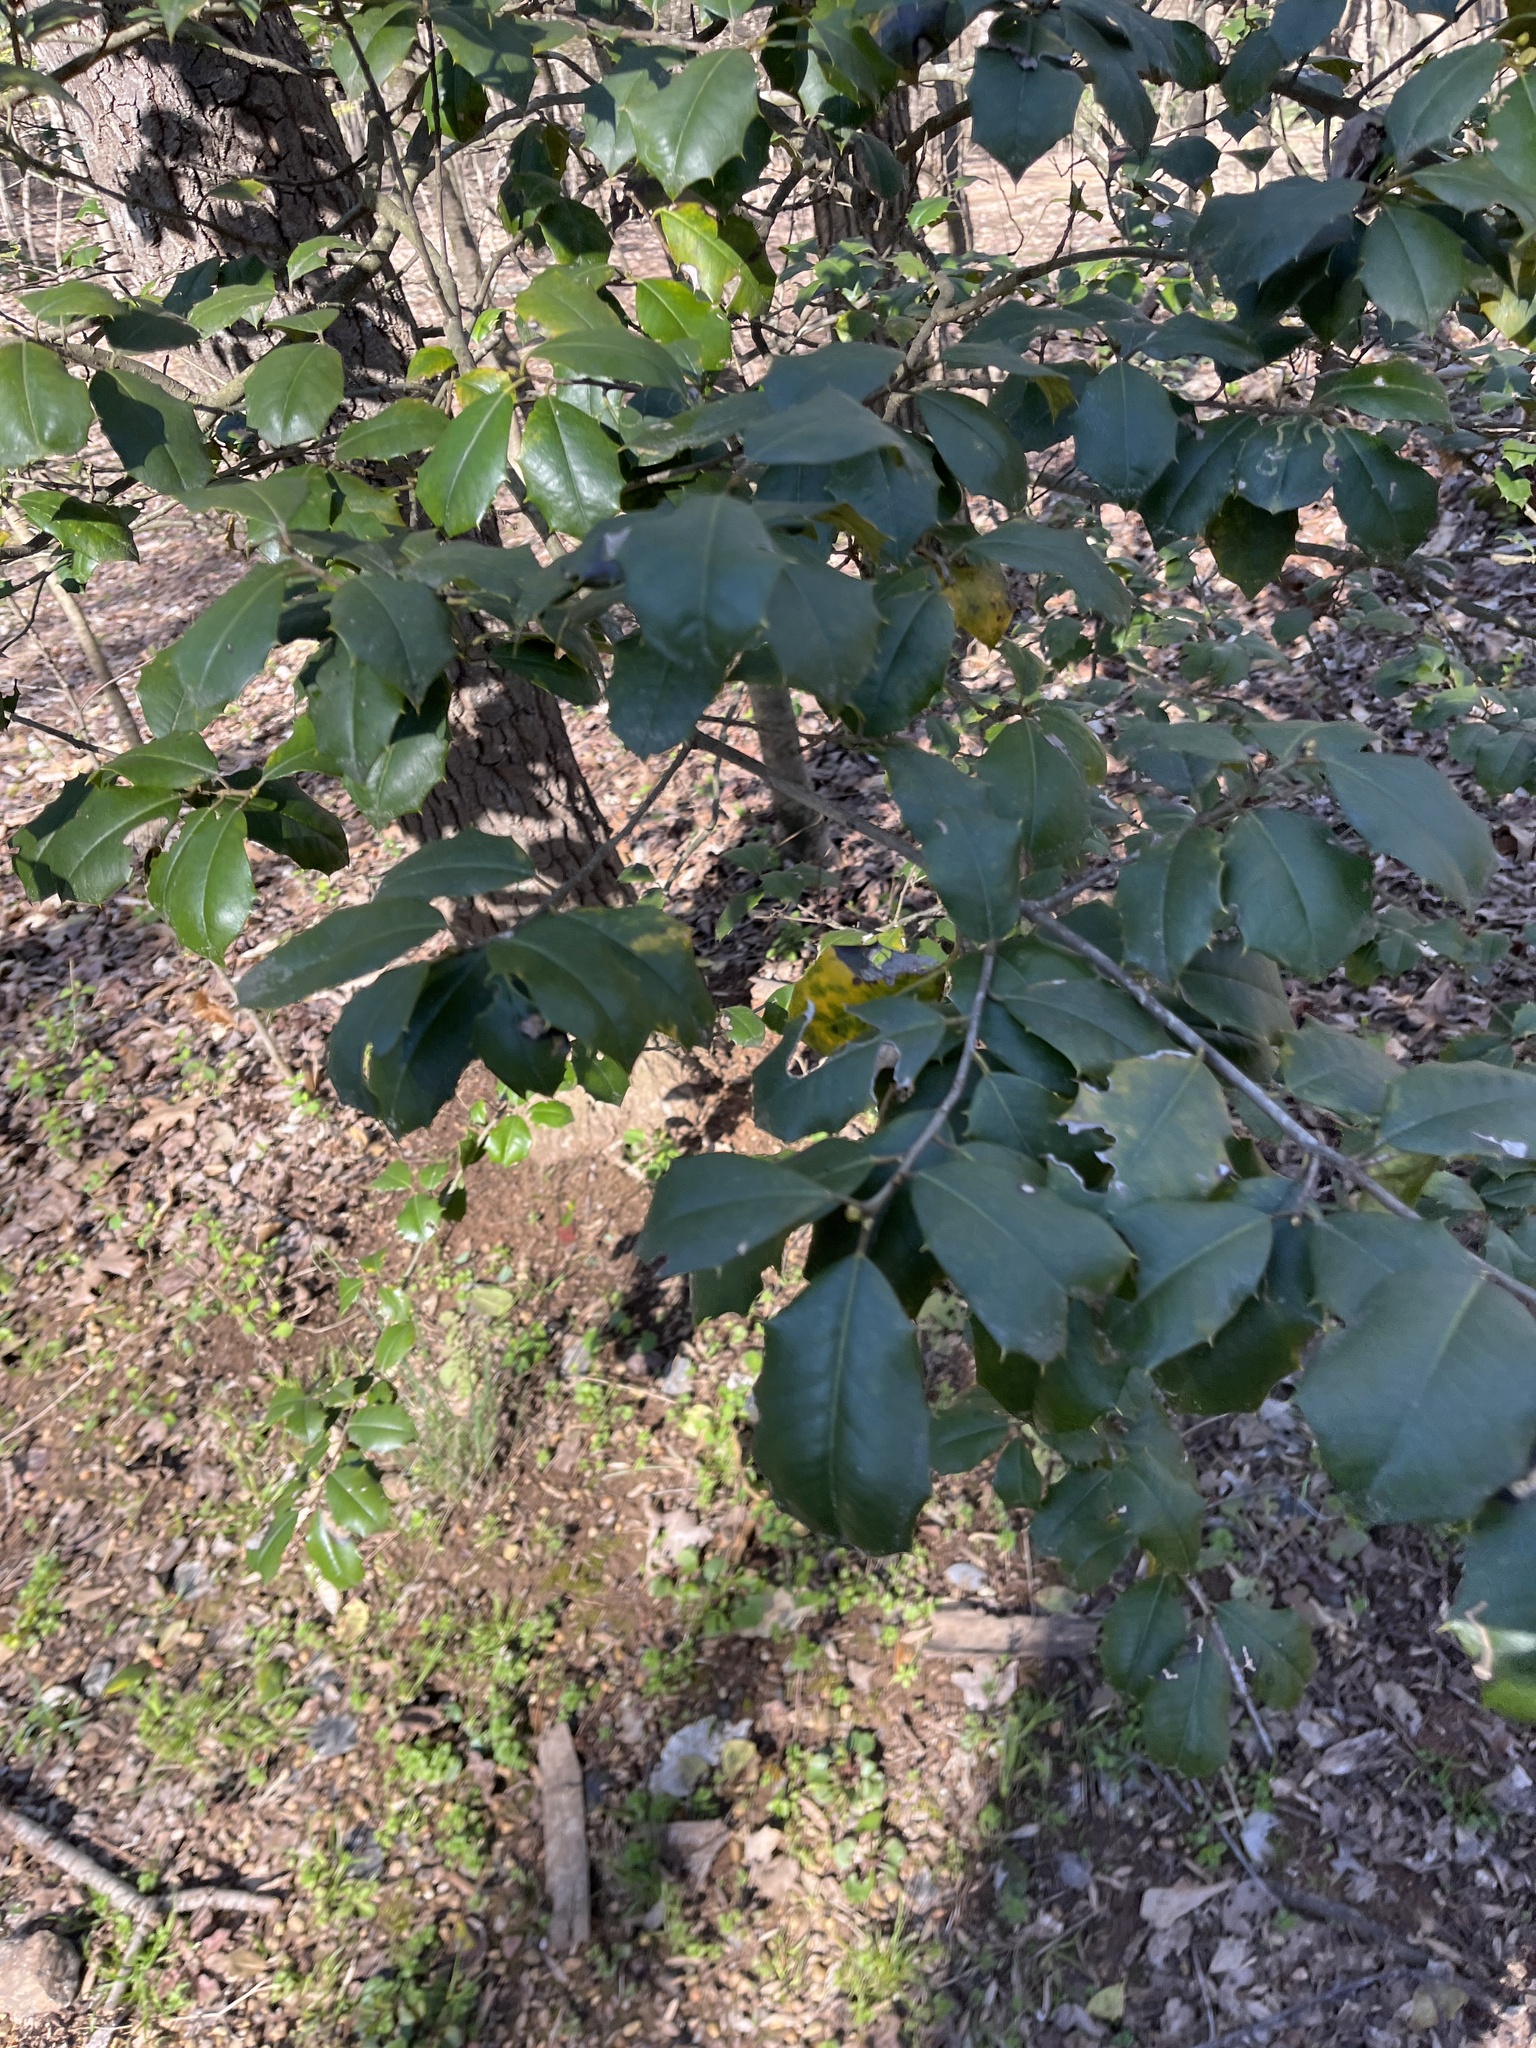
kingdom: Plantae
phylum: Tracheophyta
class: Magnoliopsida
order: Aquifoliales
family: Aquifoliaceae
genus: Ilex
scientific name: Ilex opaca
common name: American holly
